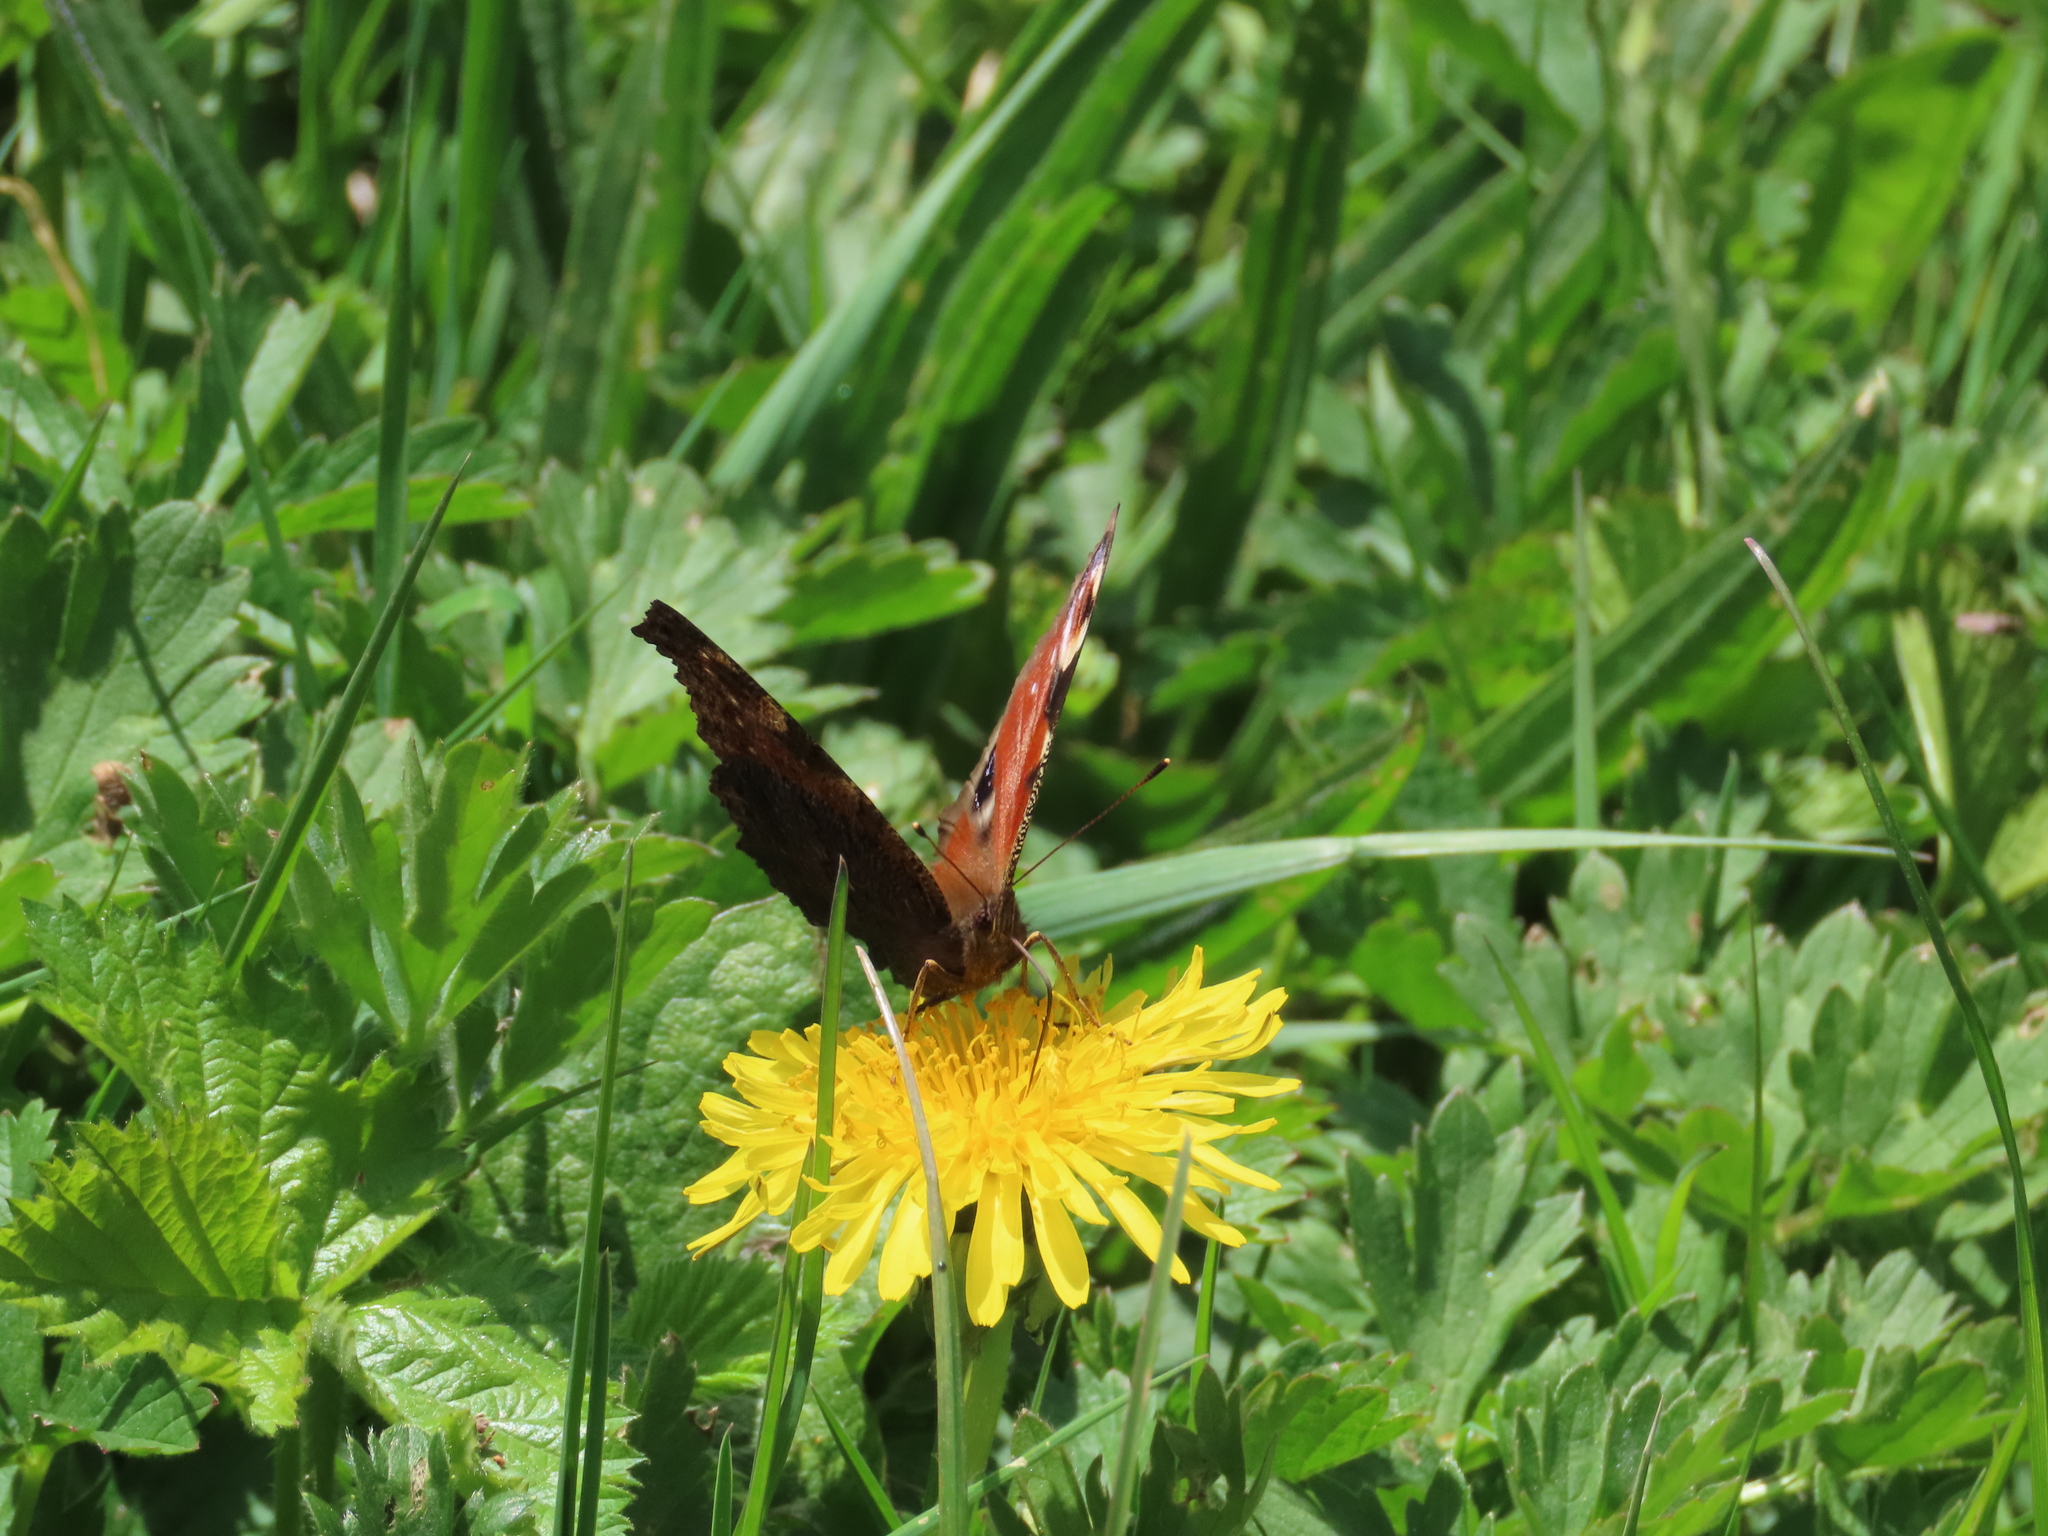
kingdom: Animalia
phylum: Arthropoda
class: Insecta
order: Lepidoptera
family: Nymphalidae
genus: Aglais
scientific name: Aglais io
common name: Peacock
